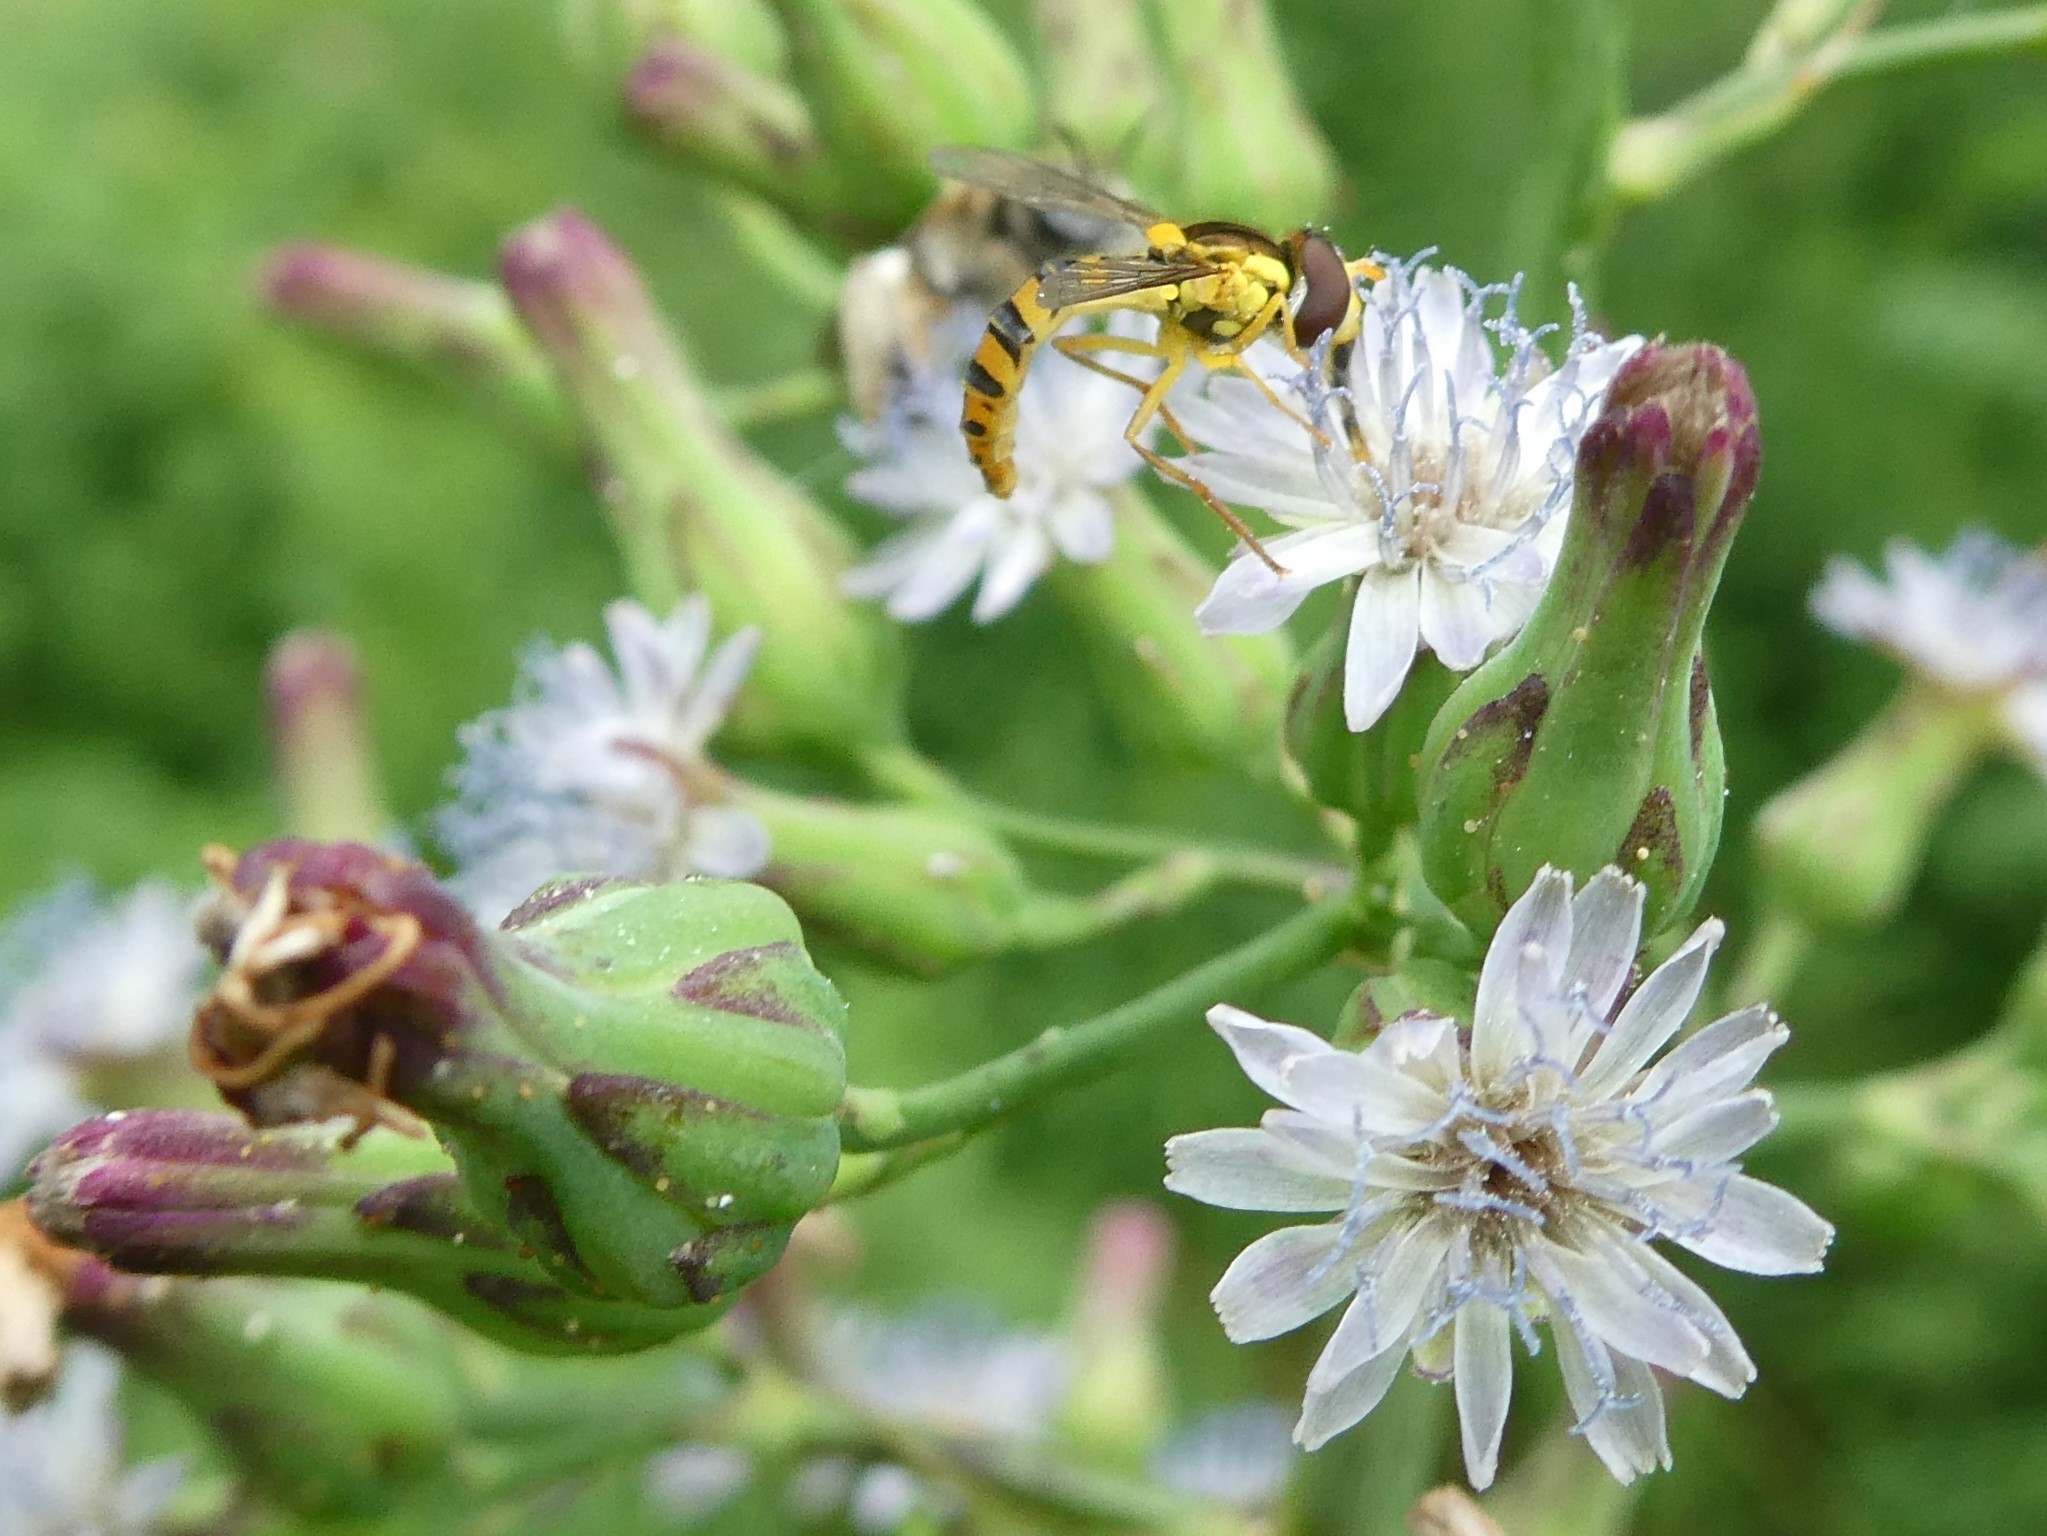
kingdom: Animalia
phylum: Arthropoda
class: Insecta
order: Diptera
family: Syrphidae
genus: Sphaerophoria
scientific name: Sphaerophoria
